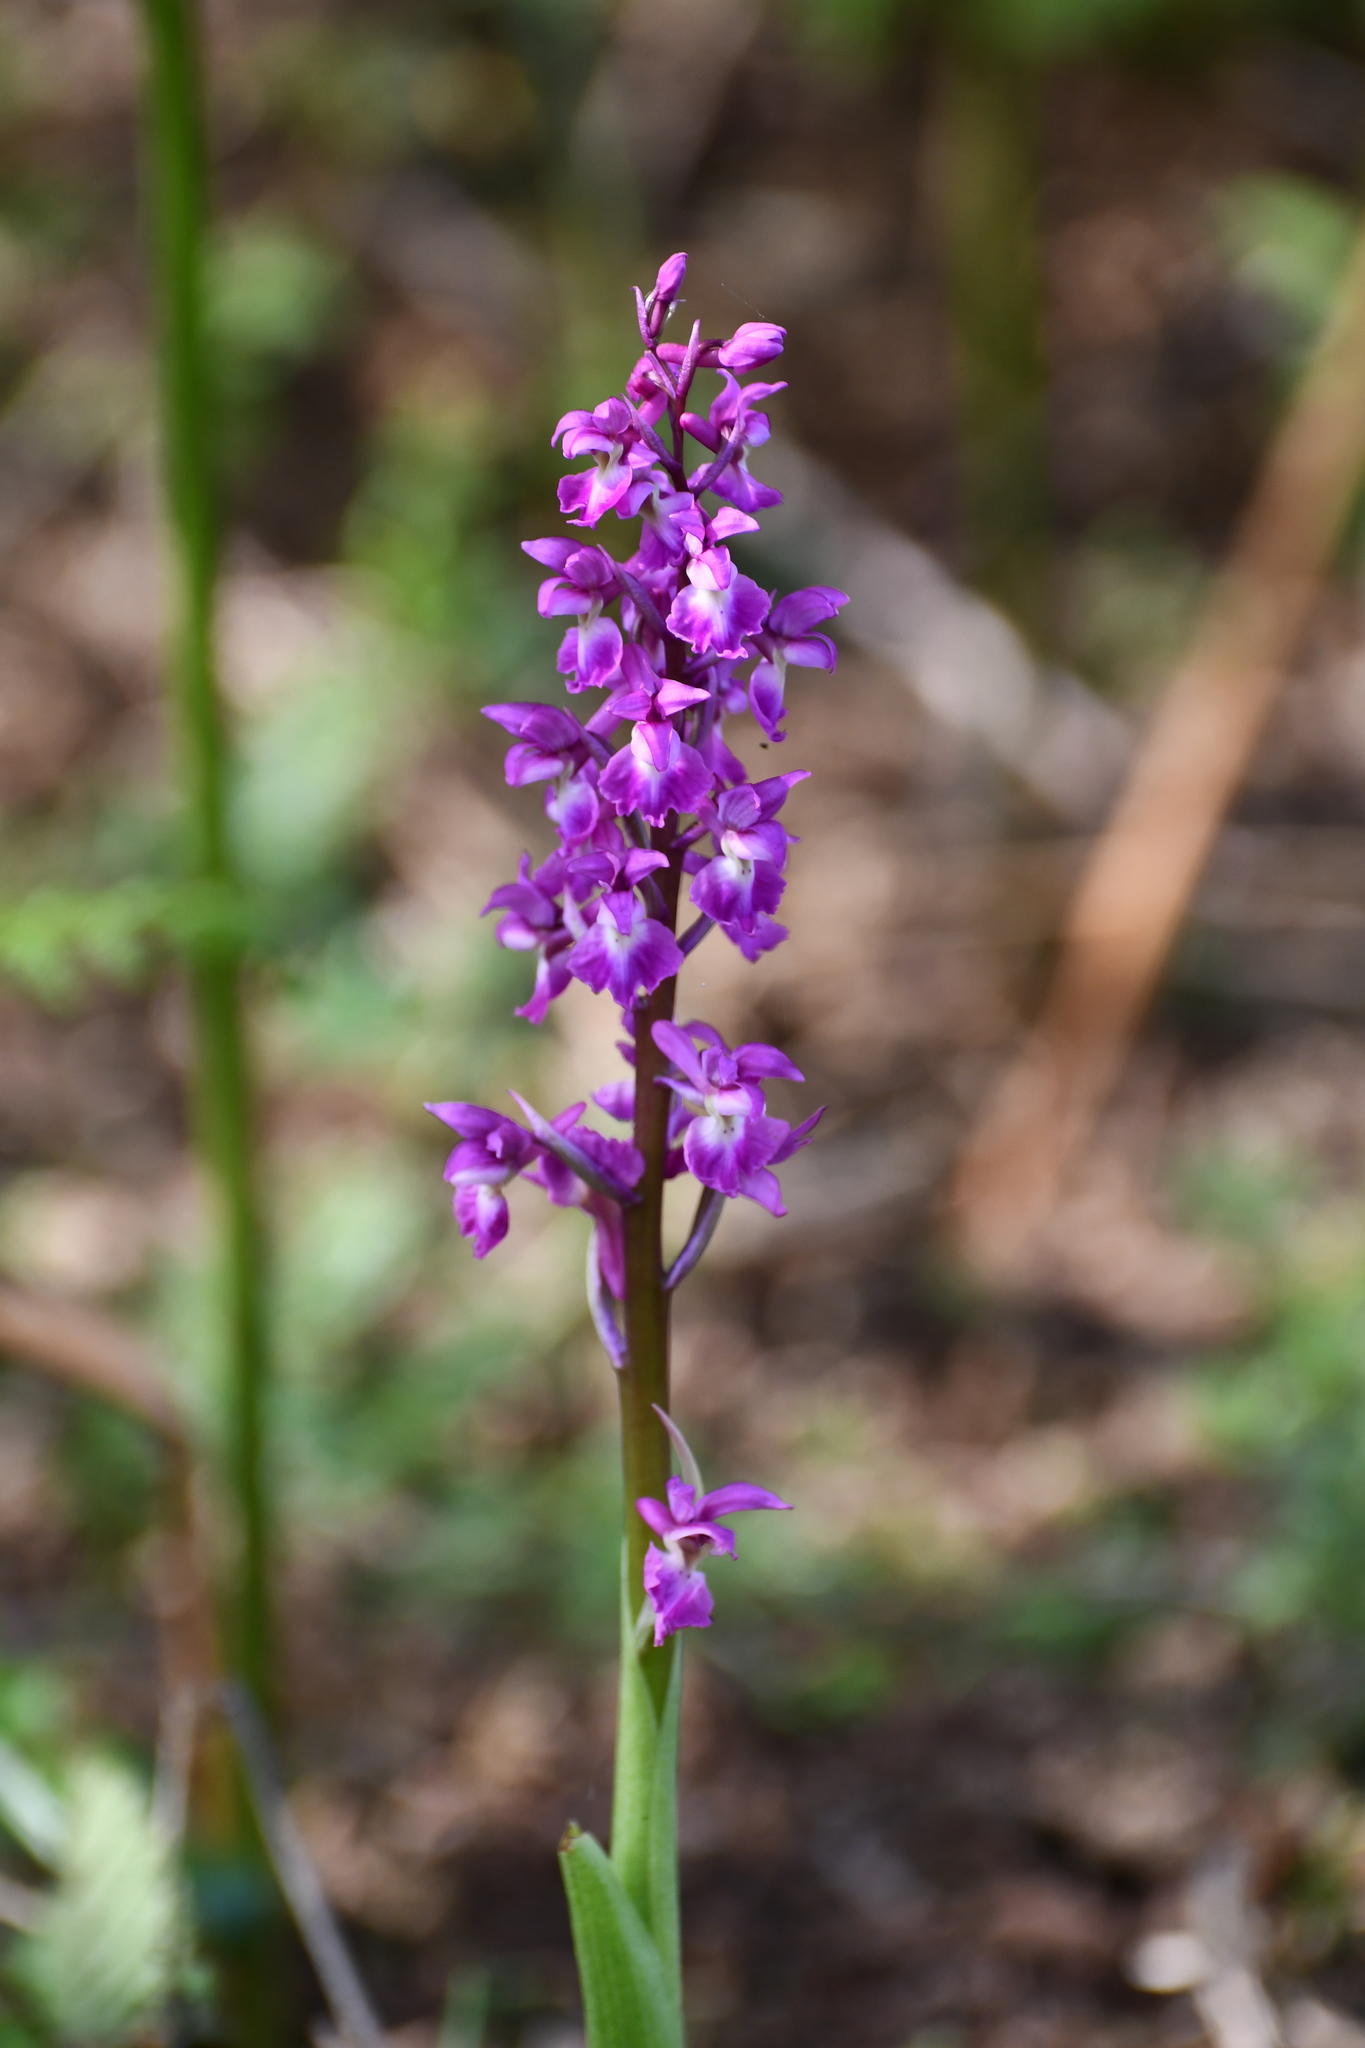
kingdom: Plantae
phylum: Tracheophyta
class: Liliopsida
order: Asparagales
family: Orchidaceae
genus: Orchis
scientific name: Orchis mascula
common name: Early-purple orchid
